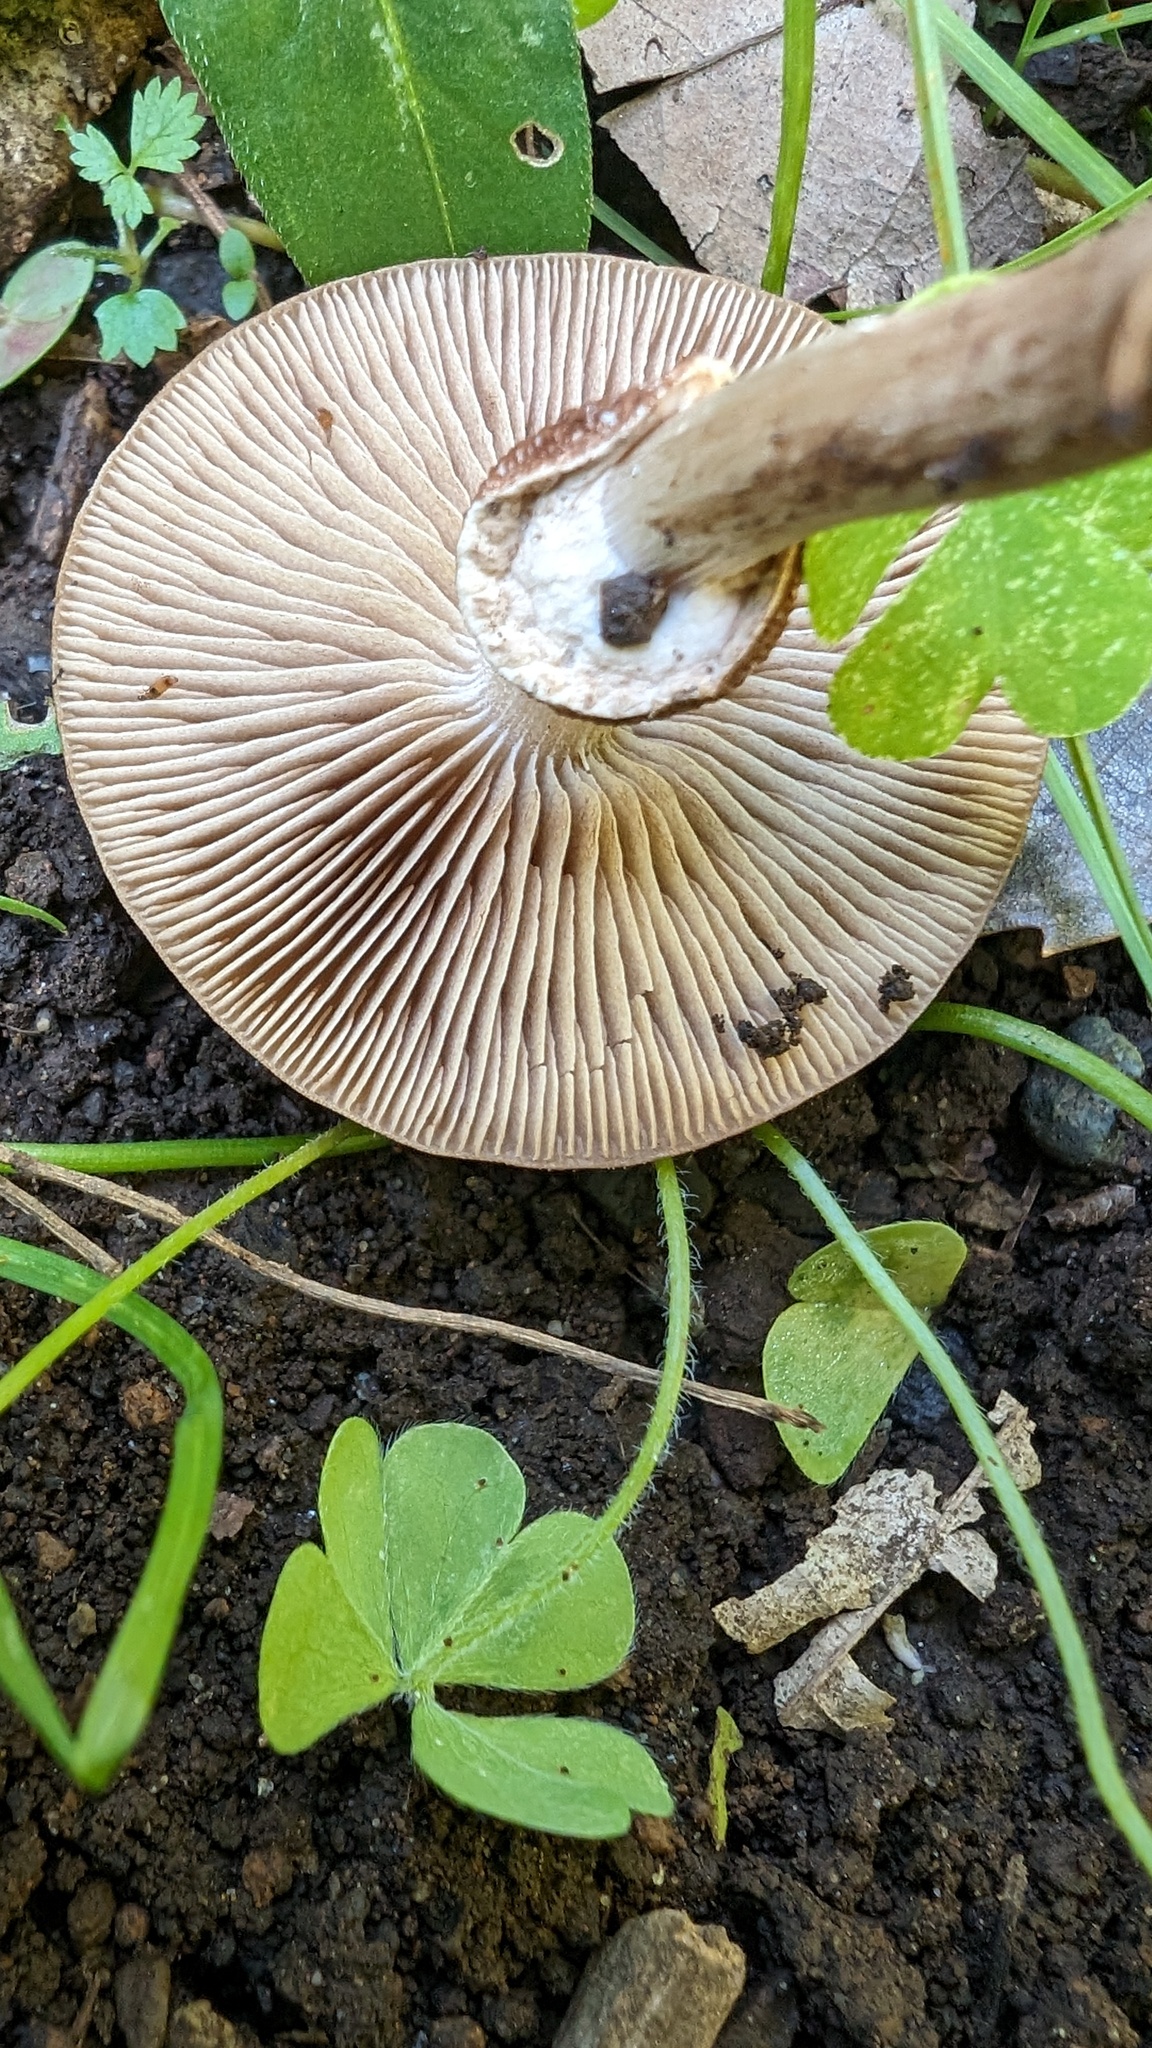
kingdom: Fungi
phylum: Basidiomycota
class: Agaricomycetes
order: Agaricales
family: Tubariaceae
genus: Cyclocybe
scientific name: Cyclocybe erebia
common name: Dark fieldcap
